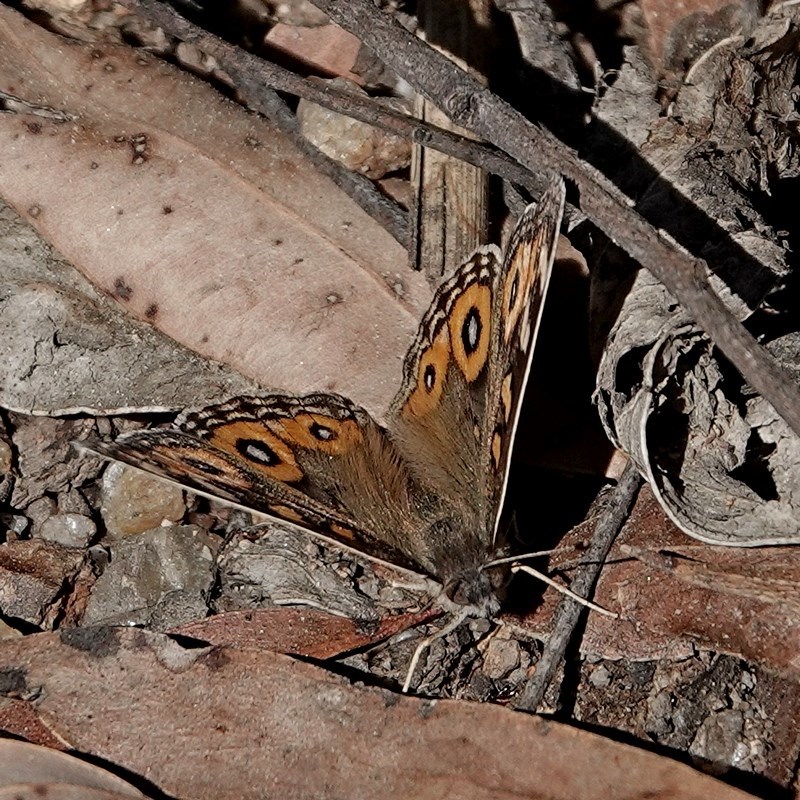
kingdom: Animalia
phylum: Arthropoda
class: Insecta
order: Lepidoptera
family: Nymphalidae
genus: Junonia
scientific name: Junonia villida
